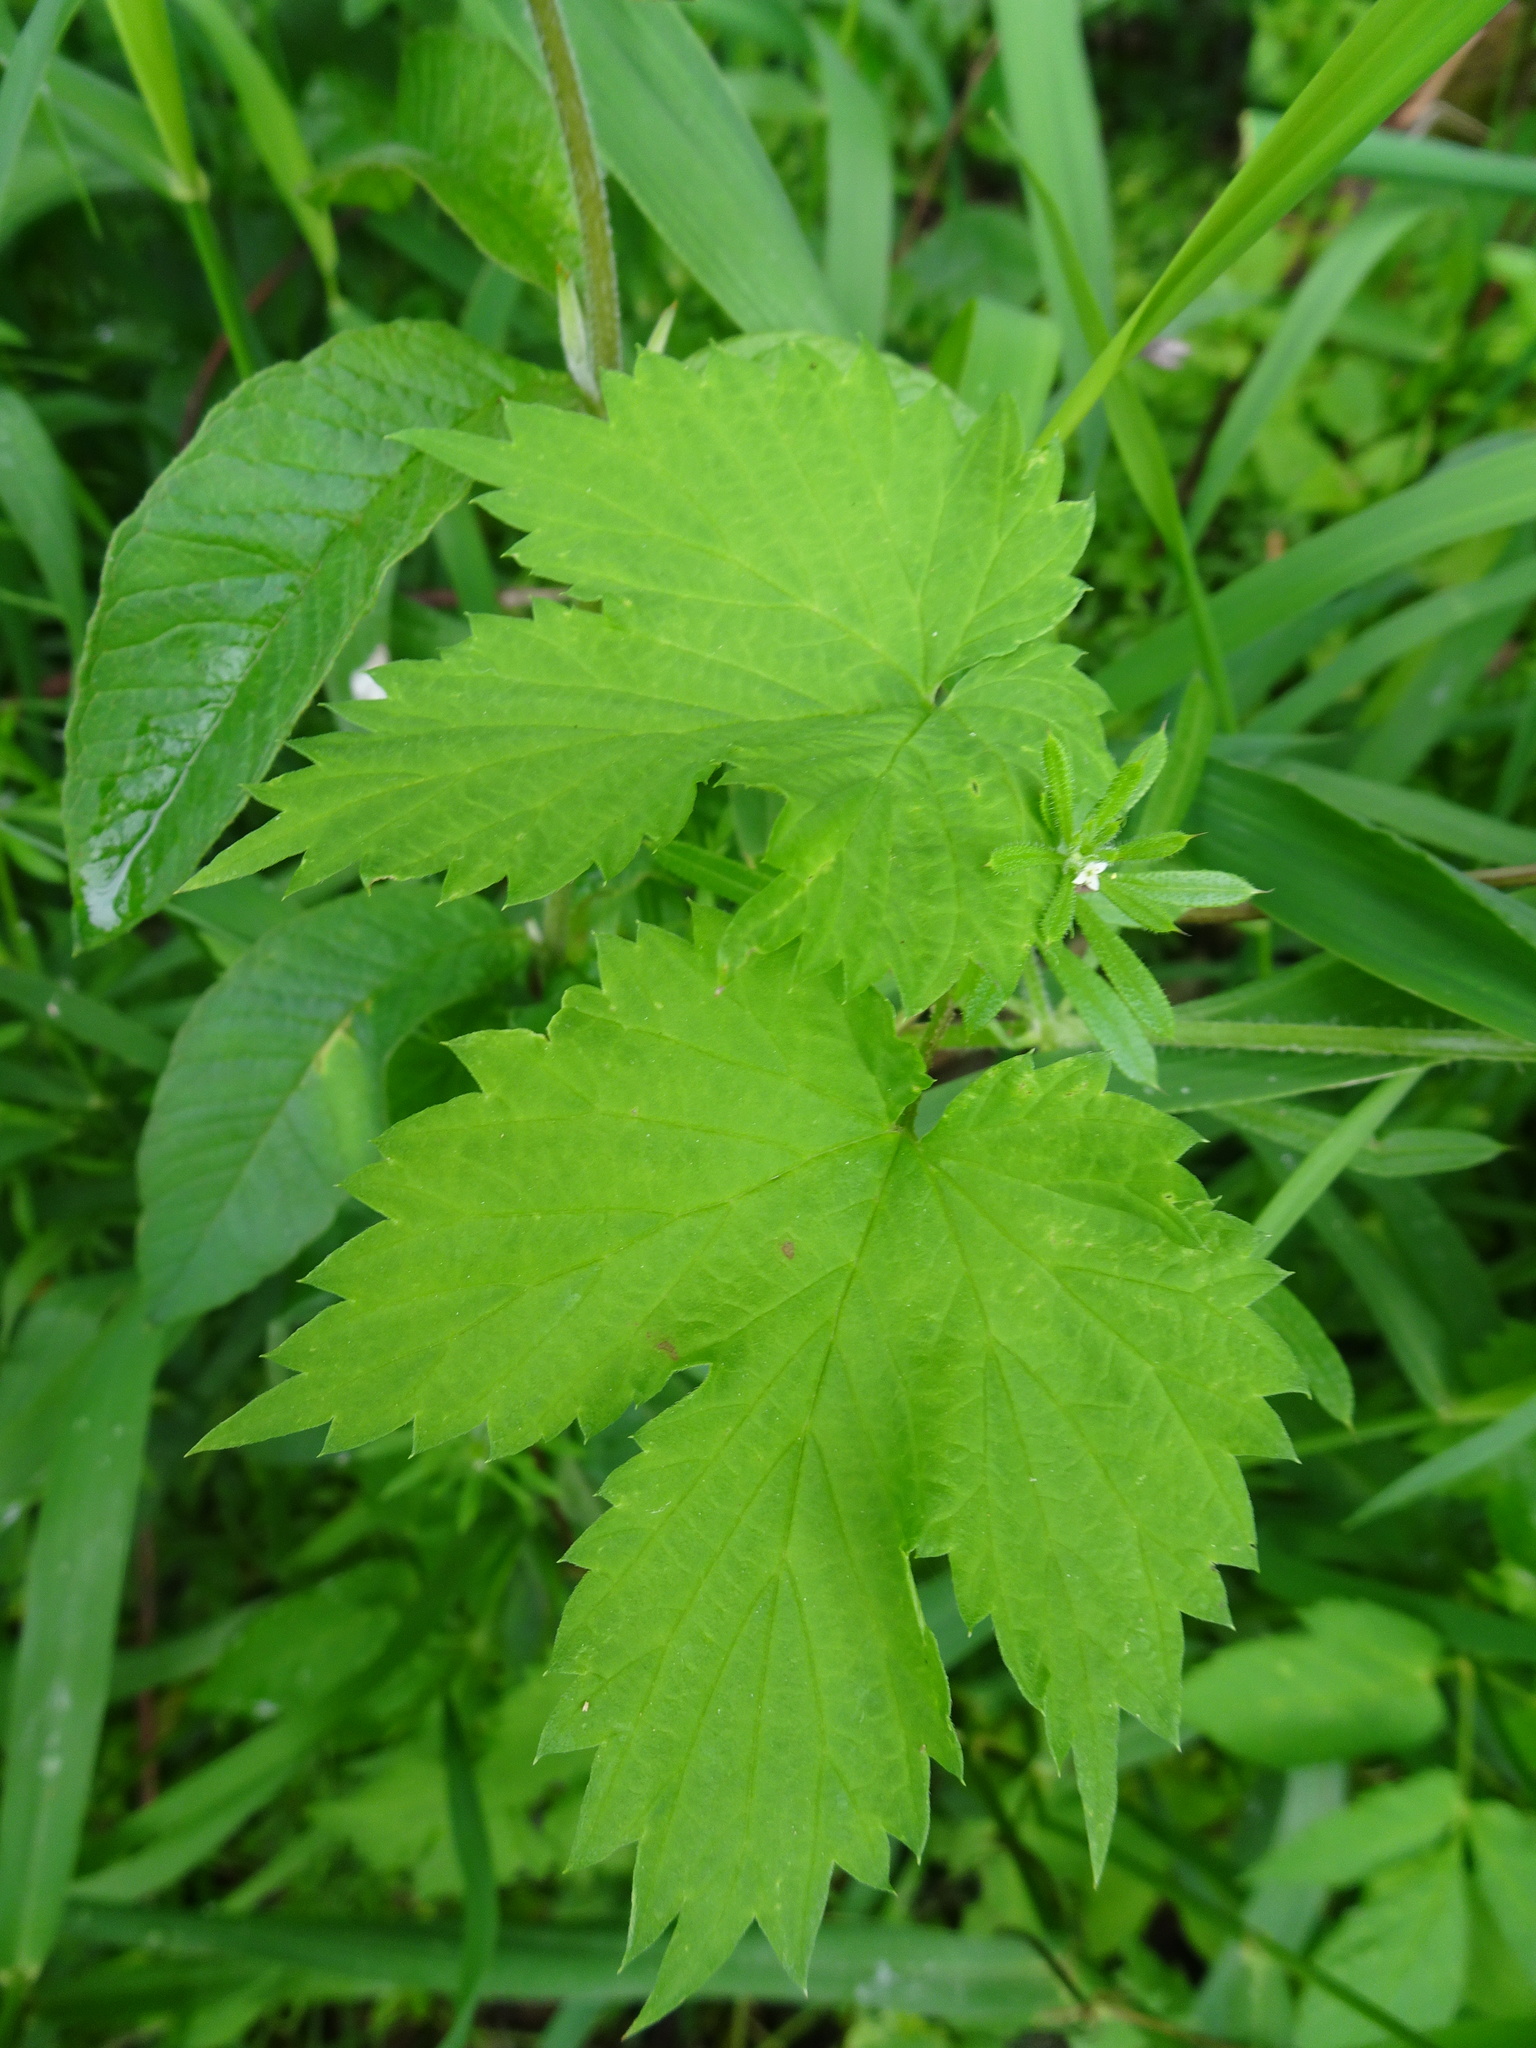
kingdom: Plantae
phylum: Tracheophyta
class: Magnoliopsida
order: Rosales
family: Cannabaceae
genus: Humulus
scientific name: Humulus lupulus
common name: Hop
